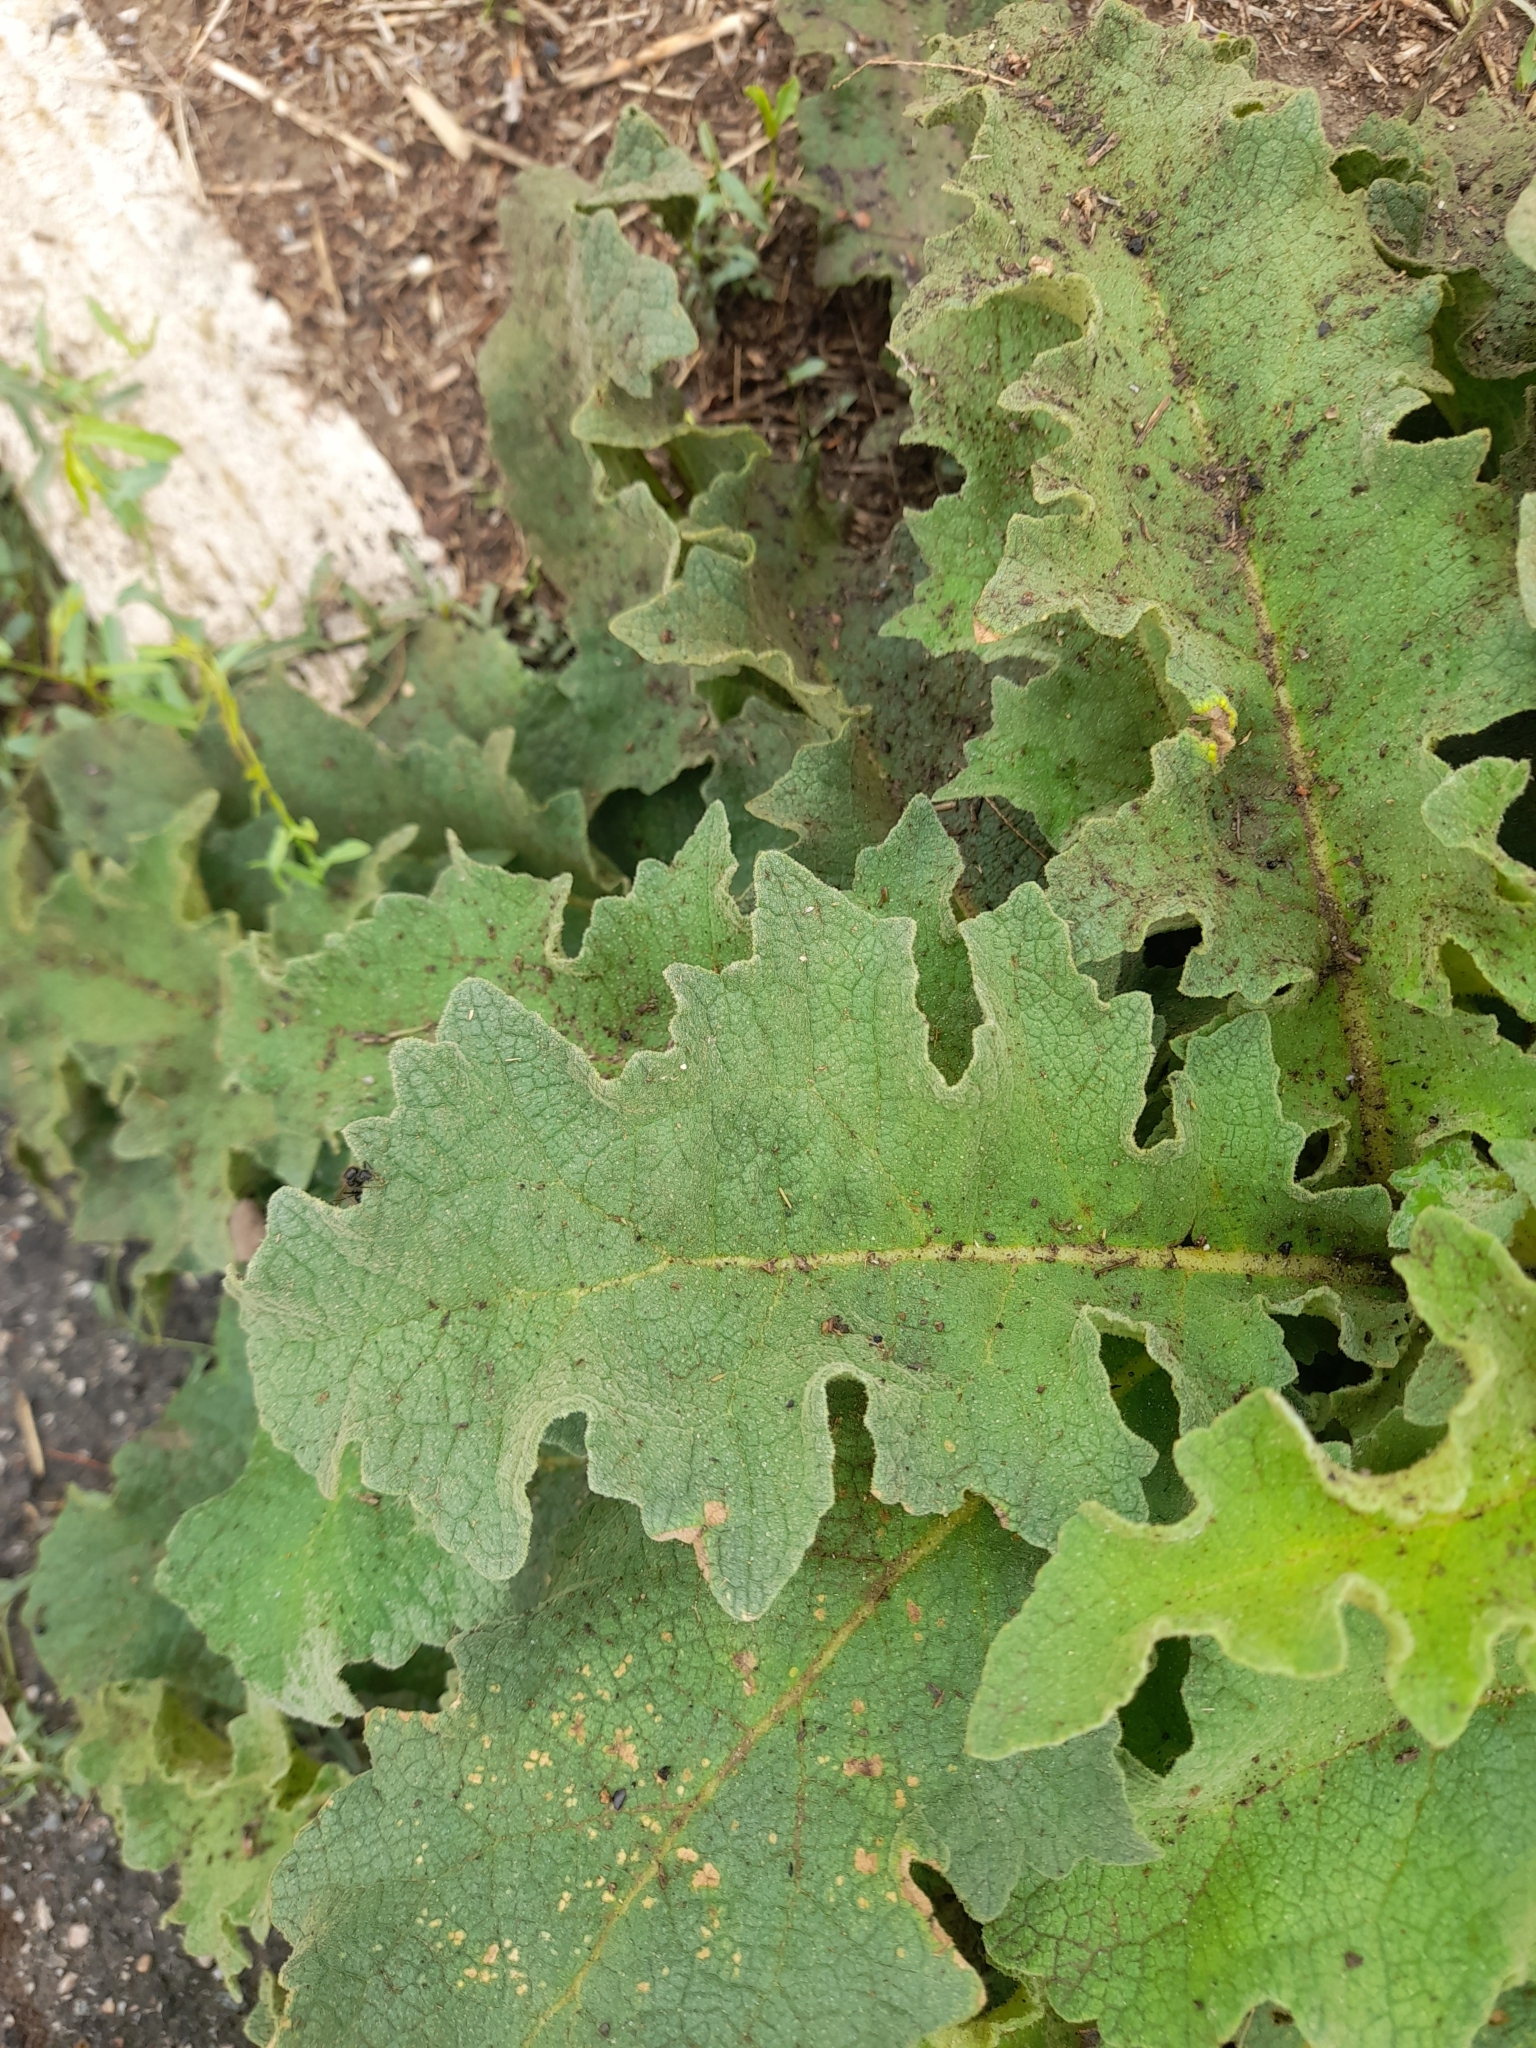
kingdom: Plantae
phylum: Tracheophyta
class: Magnoliopsida
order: Lamiales
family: Scrophulariaceae
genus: Verbascum
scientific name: Verbascum sinuatum
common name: Wavyleaf mullein
